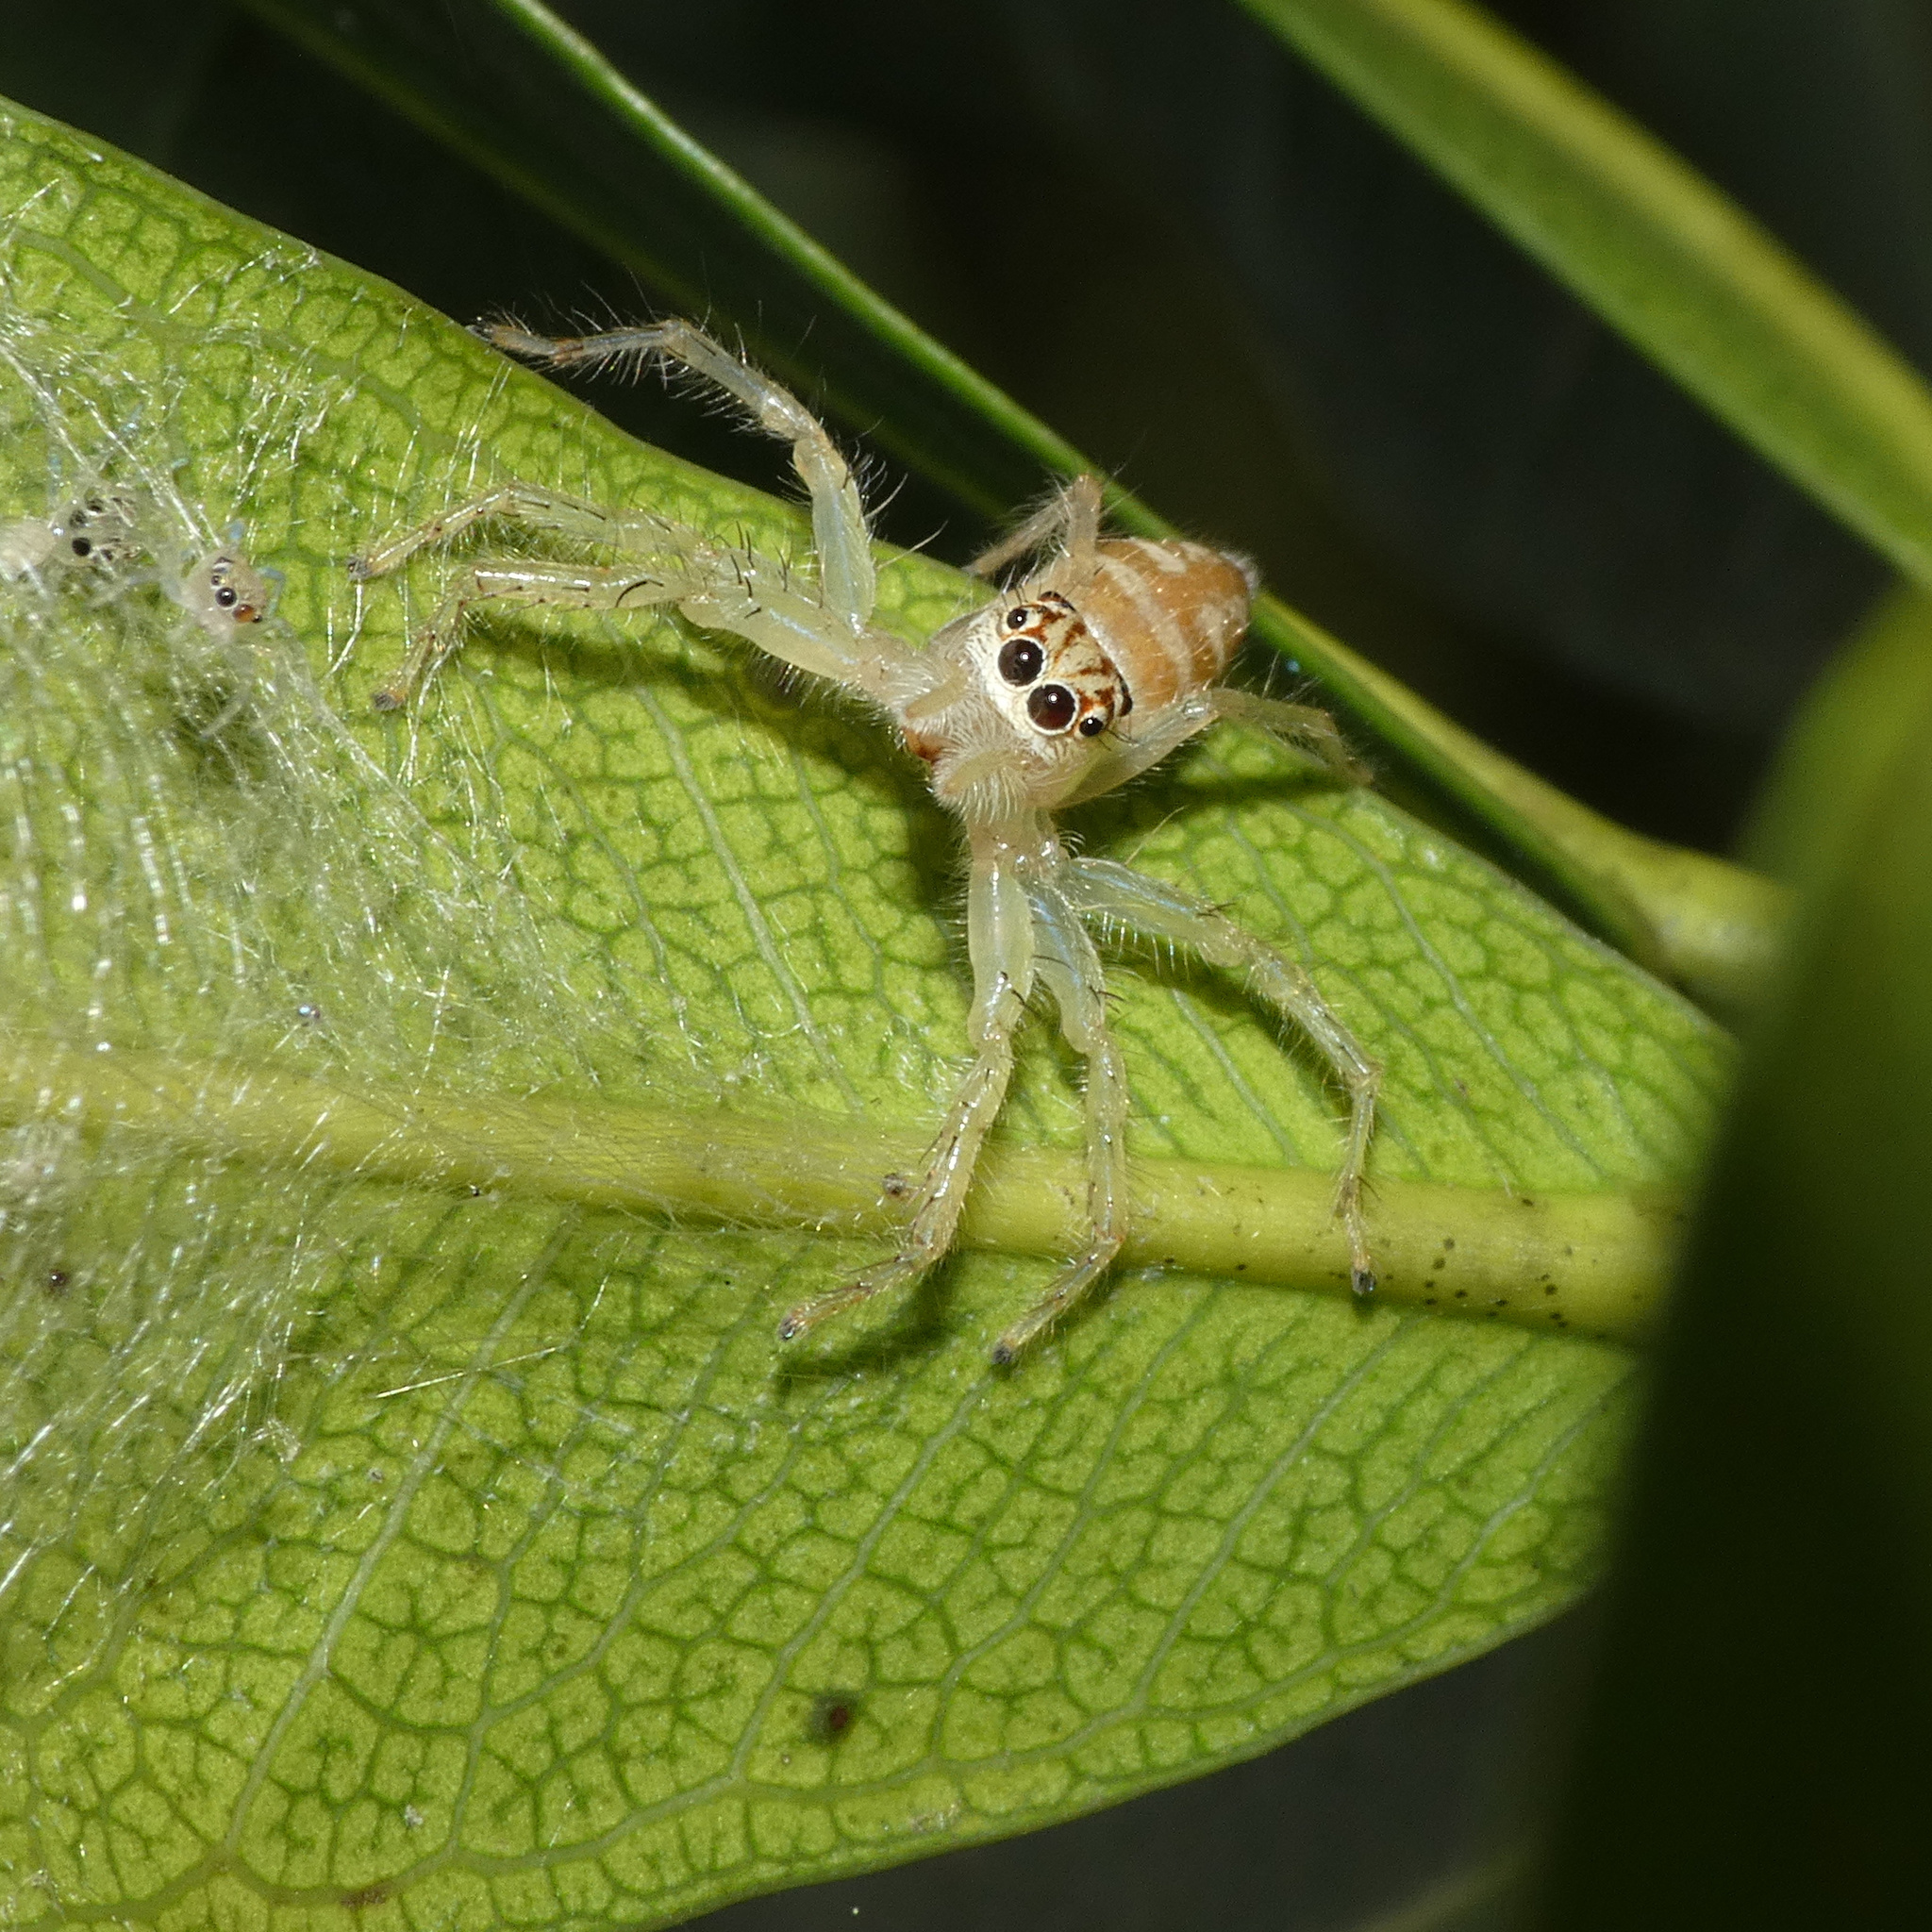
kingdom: Animalia
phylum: Arthropoda
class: Arachnida
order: Araneae
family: Salticidae
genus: Brancus
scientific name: Brancus mustelus
